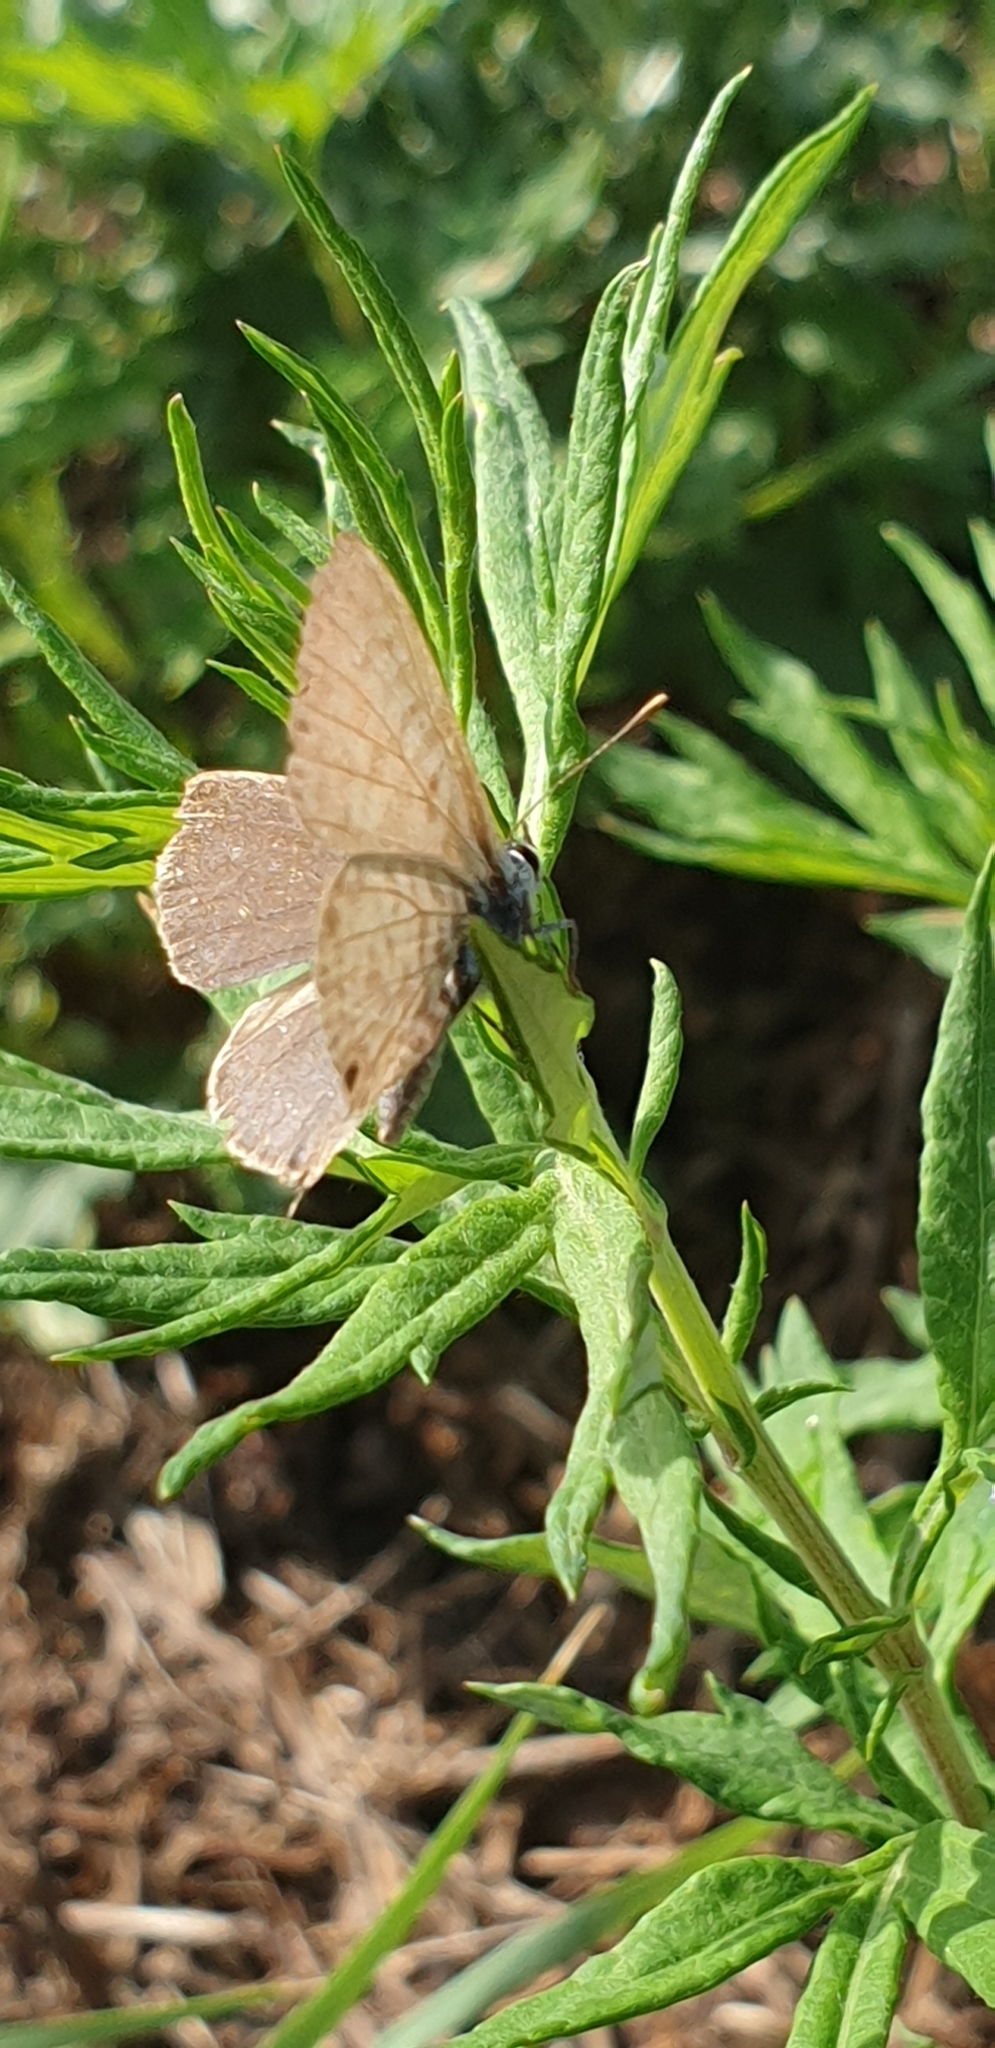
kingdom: Animalia
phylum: Arthropoda
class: Insecta
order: Lepidoptera
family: Lycaenidae
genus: Leptotes
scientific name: Leptotes pirithous
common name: Lang's short-tailed blue
